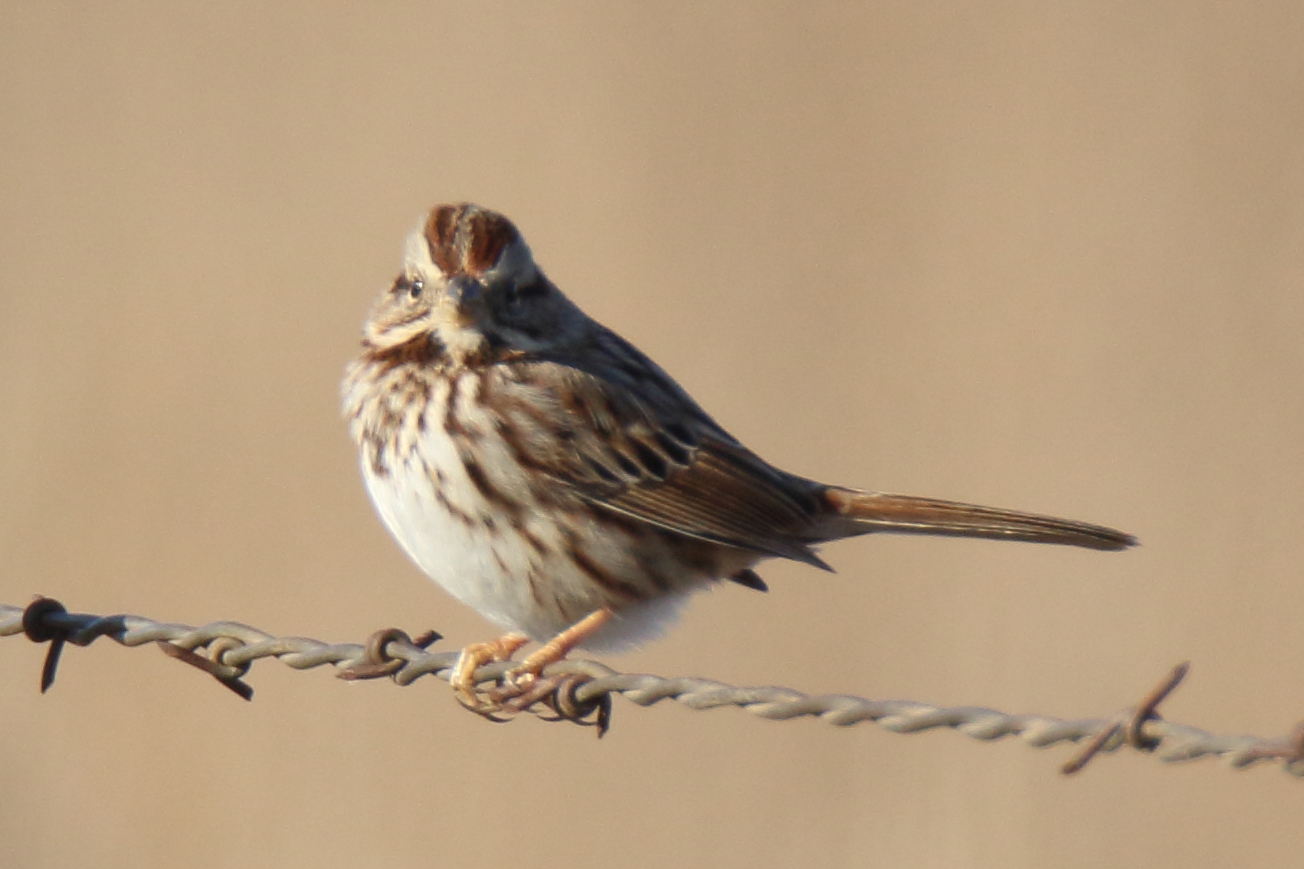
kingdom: Animalia
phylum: Chordata
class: Aves
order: Passeriformes
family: Passerellidae
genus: Melospiza
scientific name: Melospiza melodia
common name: Song sparrow
